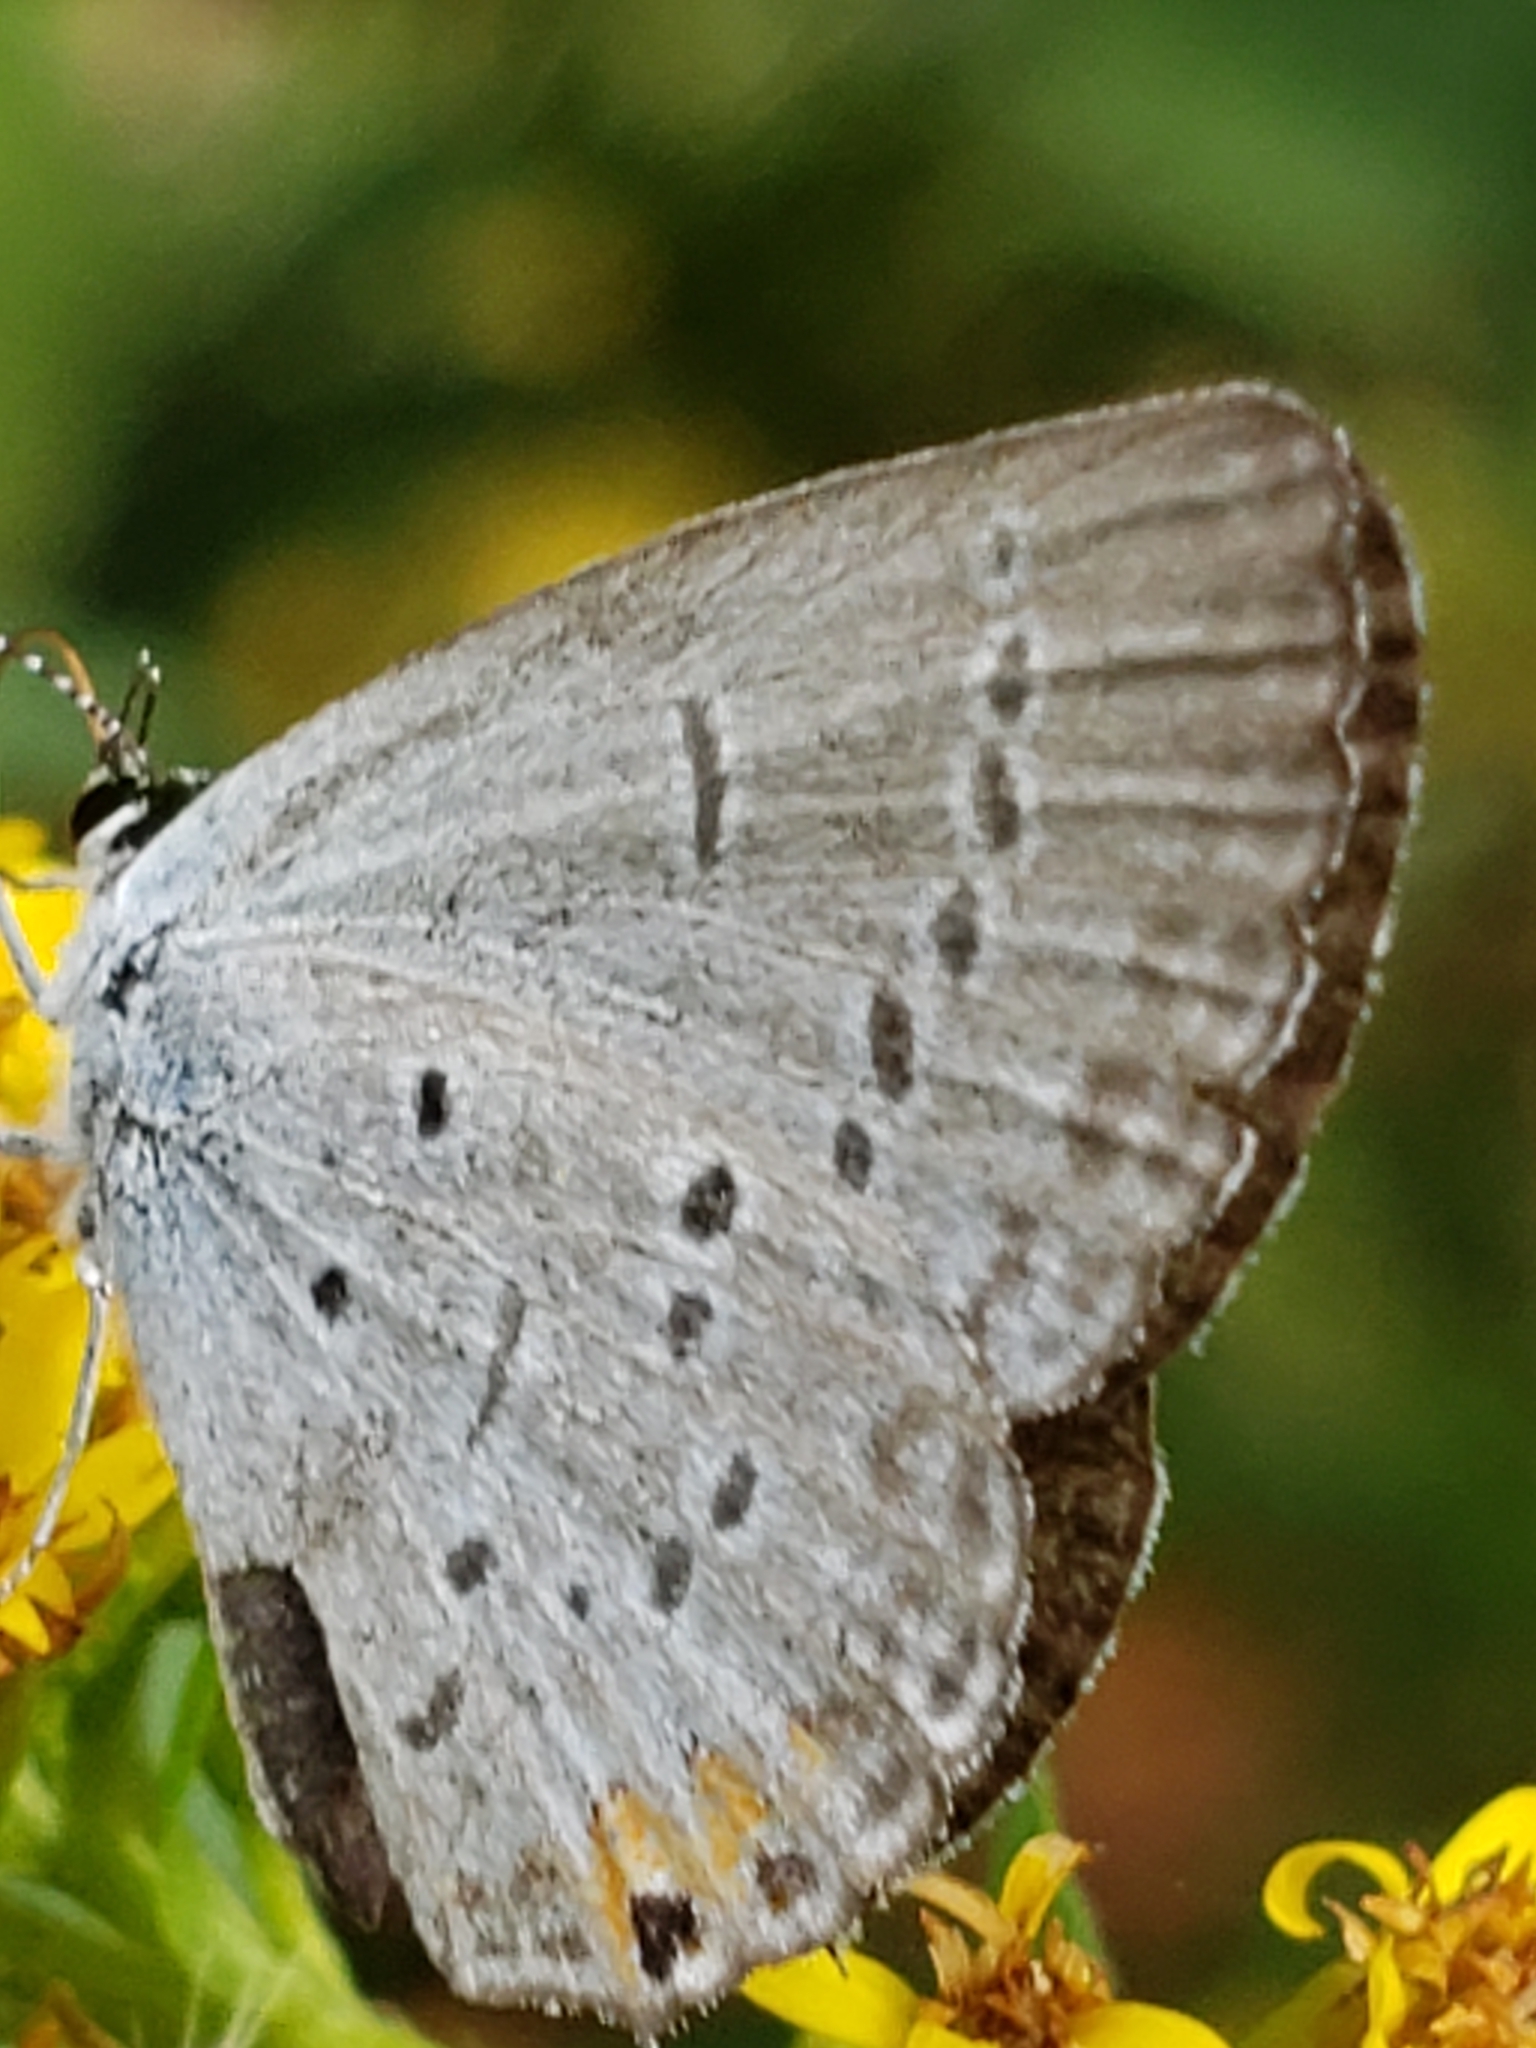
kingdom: Animalia
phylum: Arthropoda
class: Insecta
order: Lepidoptera
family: Lycaenidae
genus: Elkalyce
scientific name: Elkalyce comyntas
